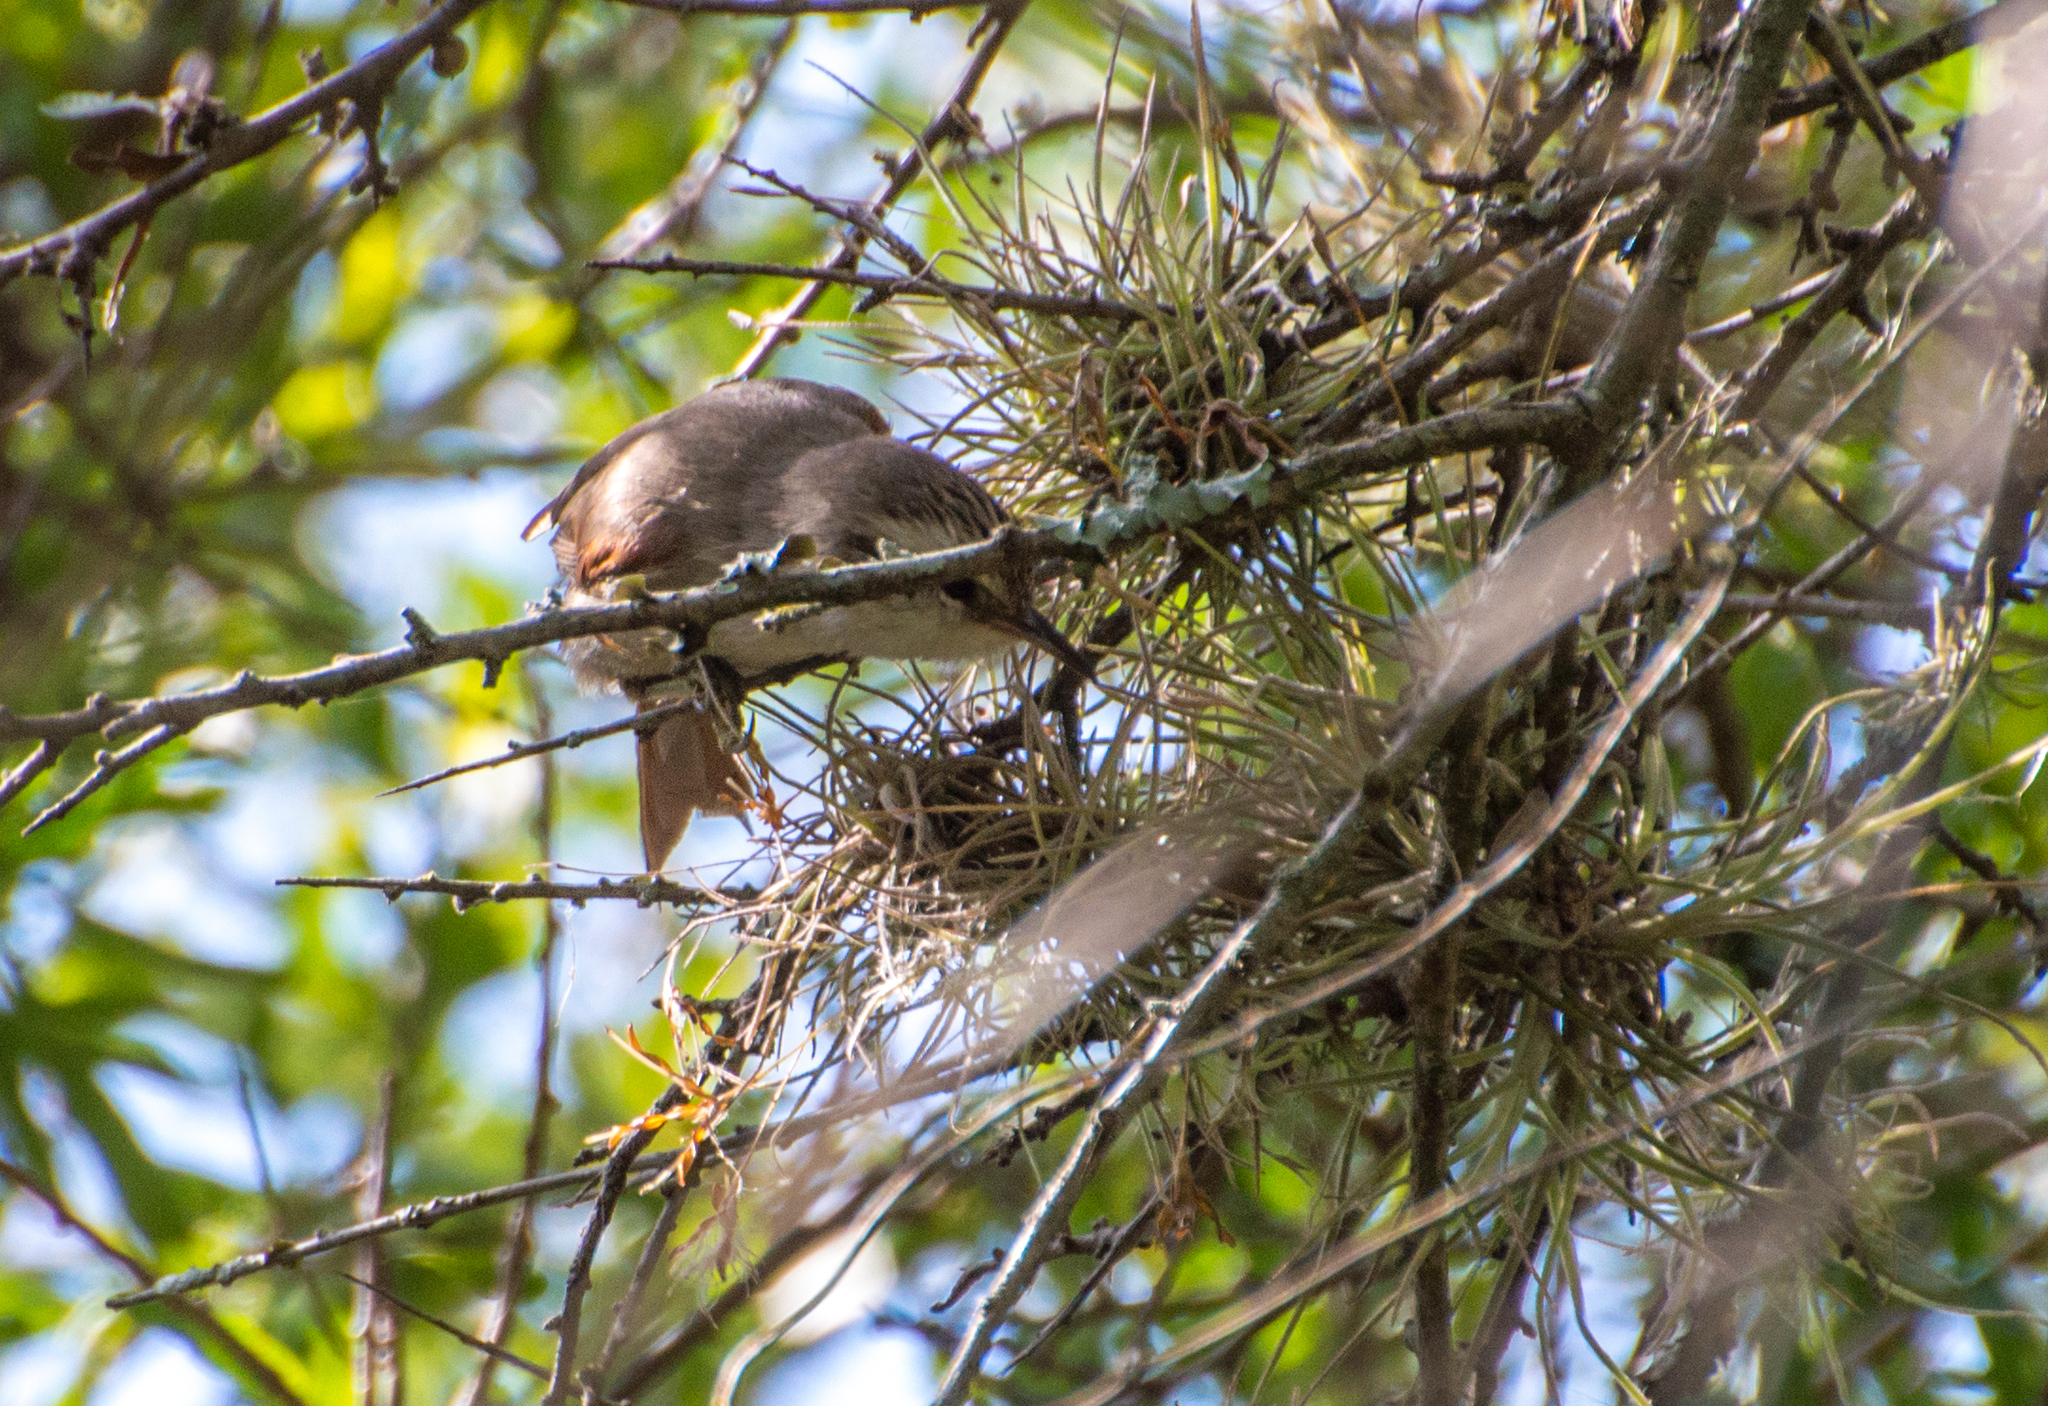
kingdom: Animalia
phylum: Chordata
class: Aves
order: Passeriformes
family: Furnariidae
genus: Cranioleuca
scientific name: Cranioleuca pyrrhophia
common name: Stripe-crowned spinetail
